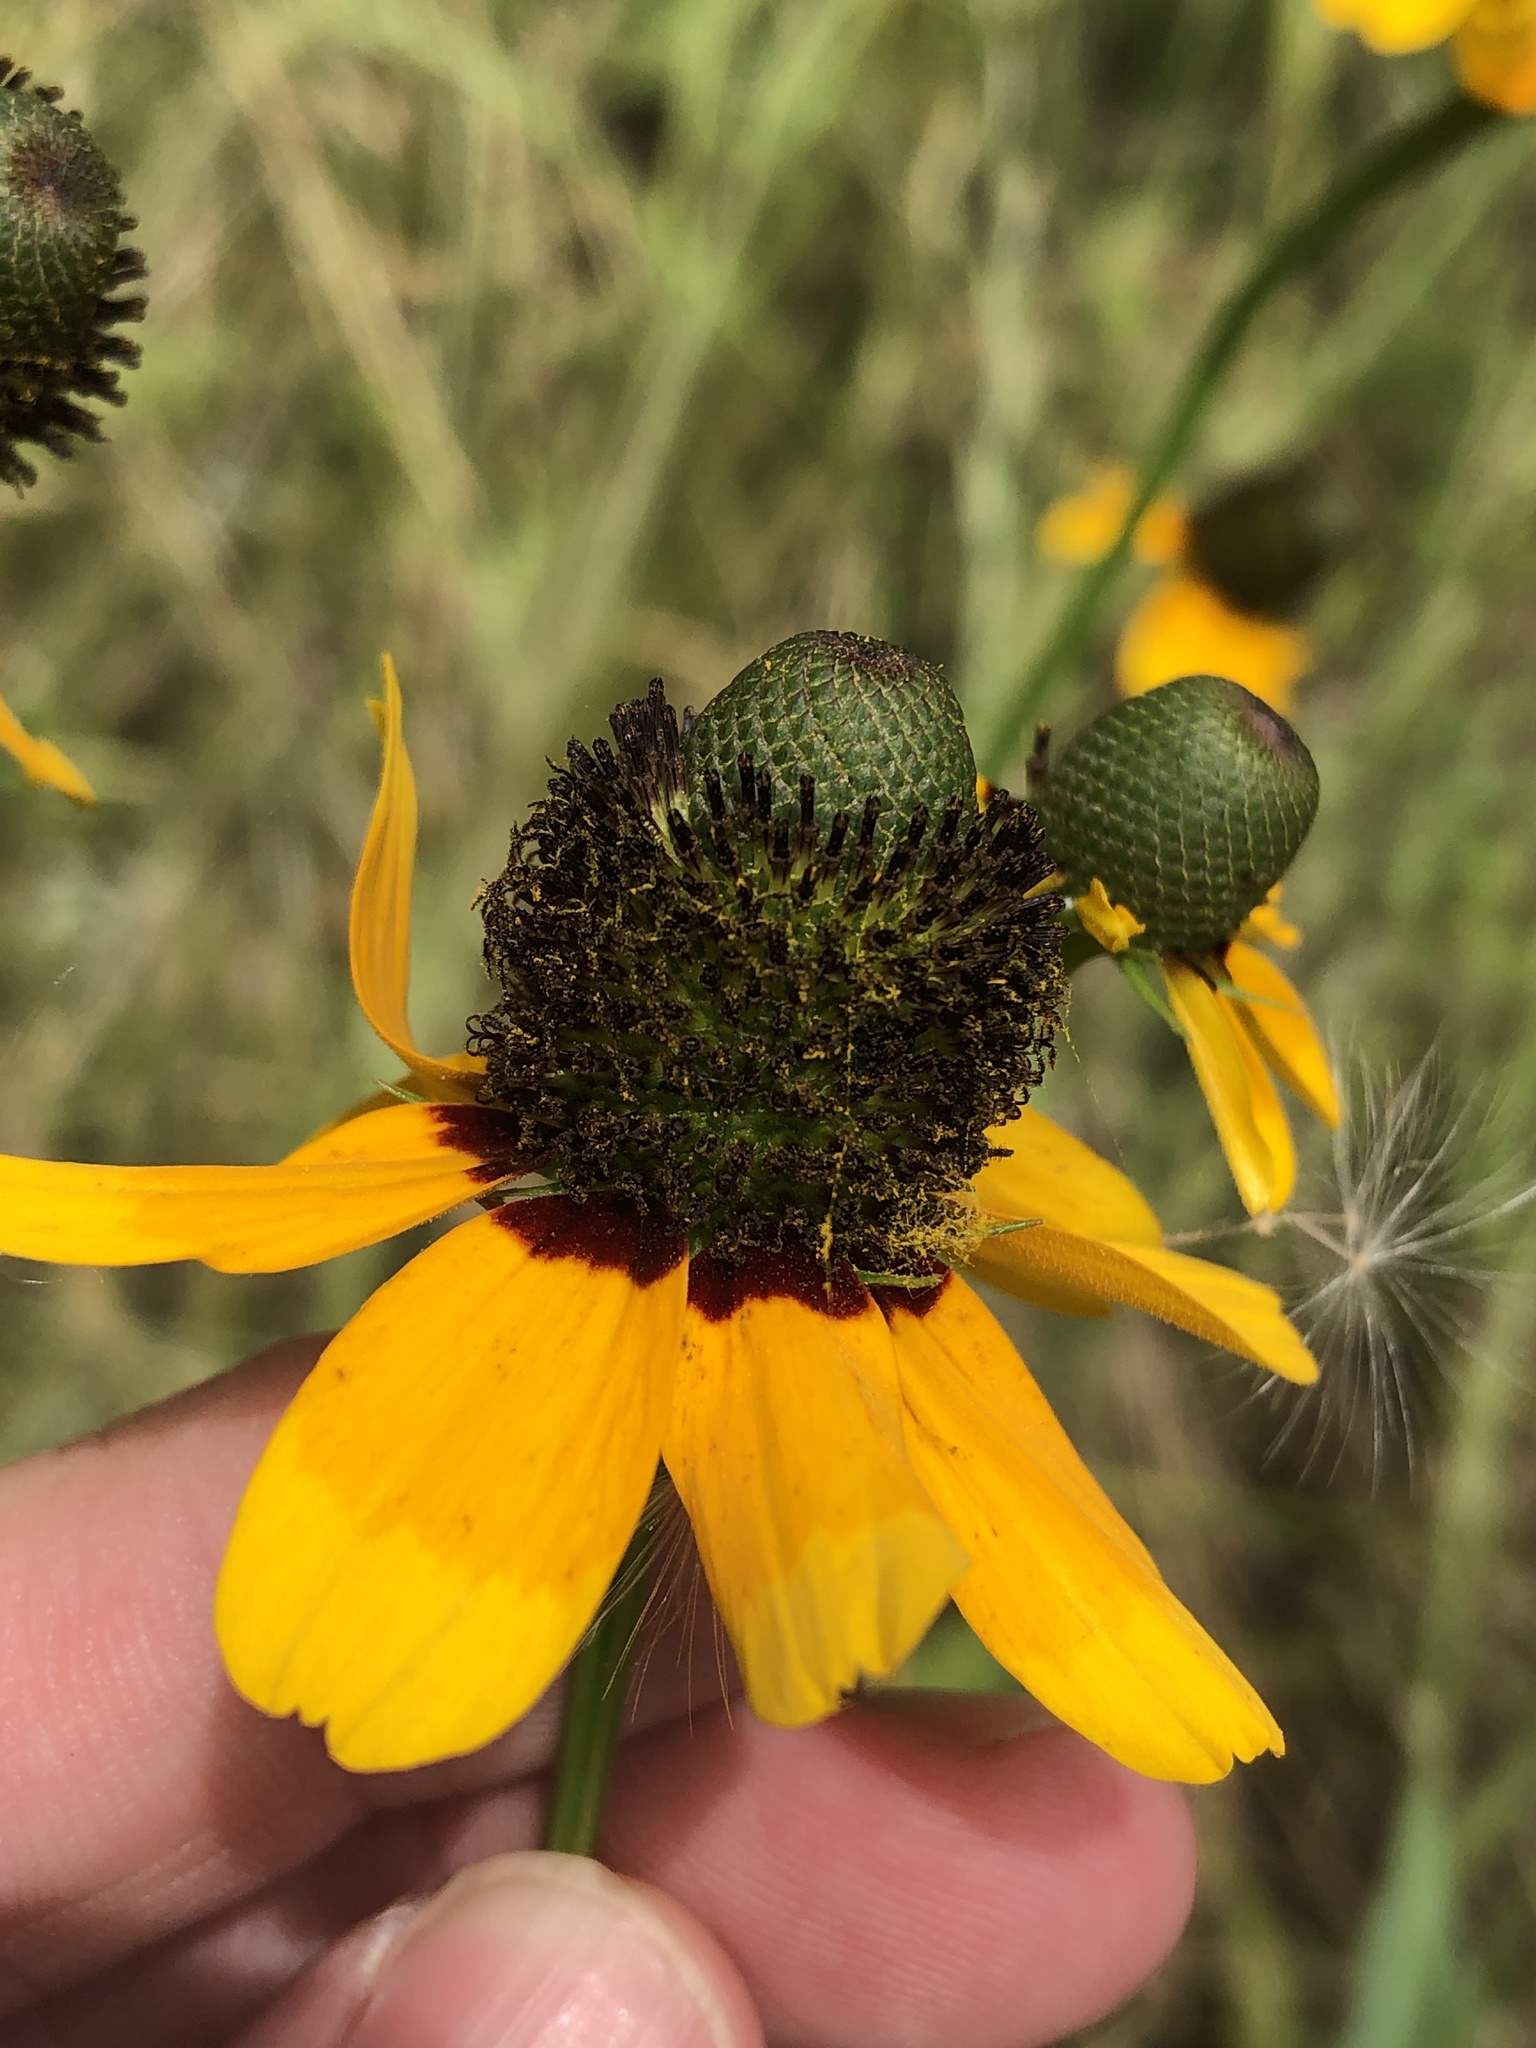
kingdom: Plantae
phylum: Tracheophyta
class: Magnoliopsida
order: Asterales
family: Asteraceae
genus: Rudbeckia
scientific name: Rudbeckia amplexicaulis
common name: Clasping-leaf coneflower
